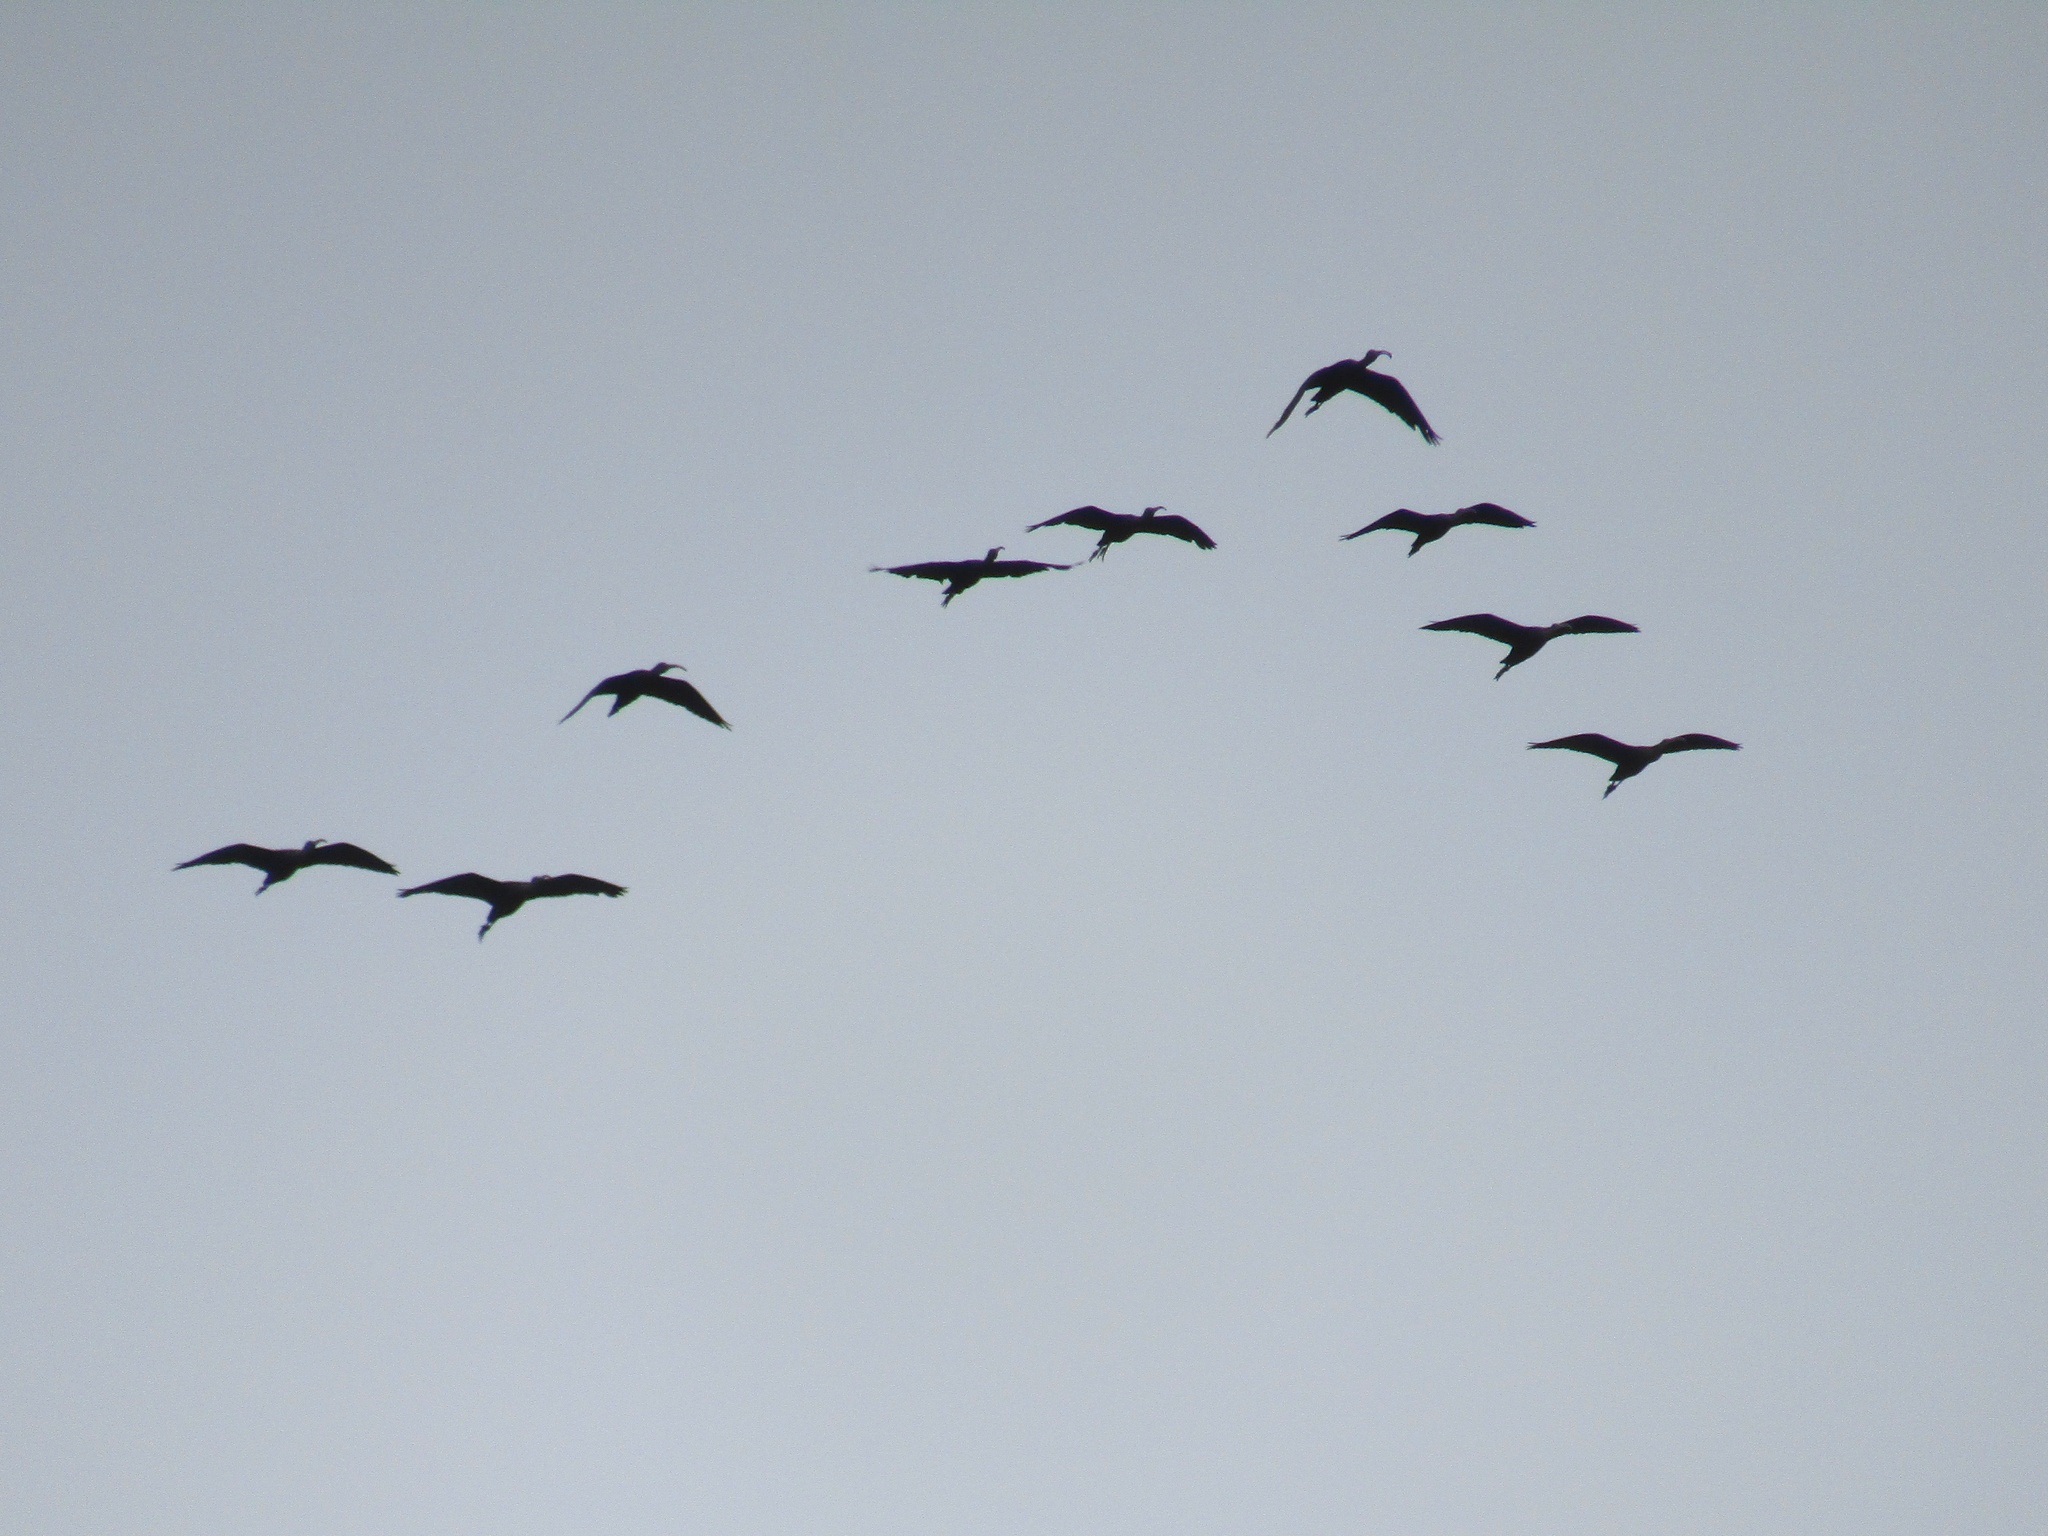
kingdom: Animalia
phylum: Chordata
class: Aves
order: Pelecaniformes
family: Threskiornithidae
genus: Plegadis
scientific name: Plegadis chihi
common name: White-faced ibis
